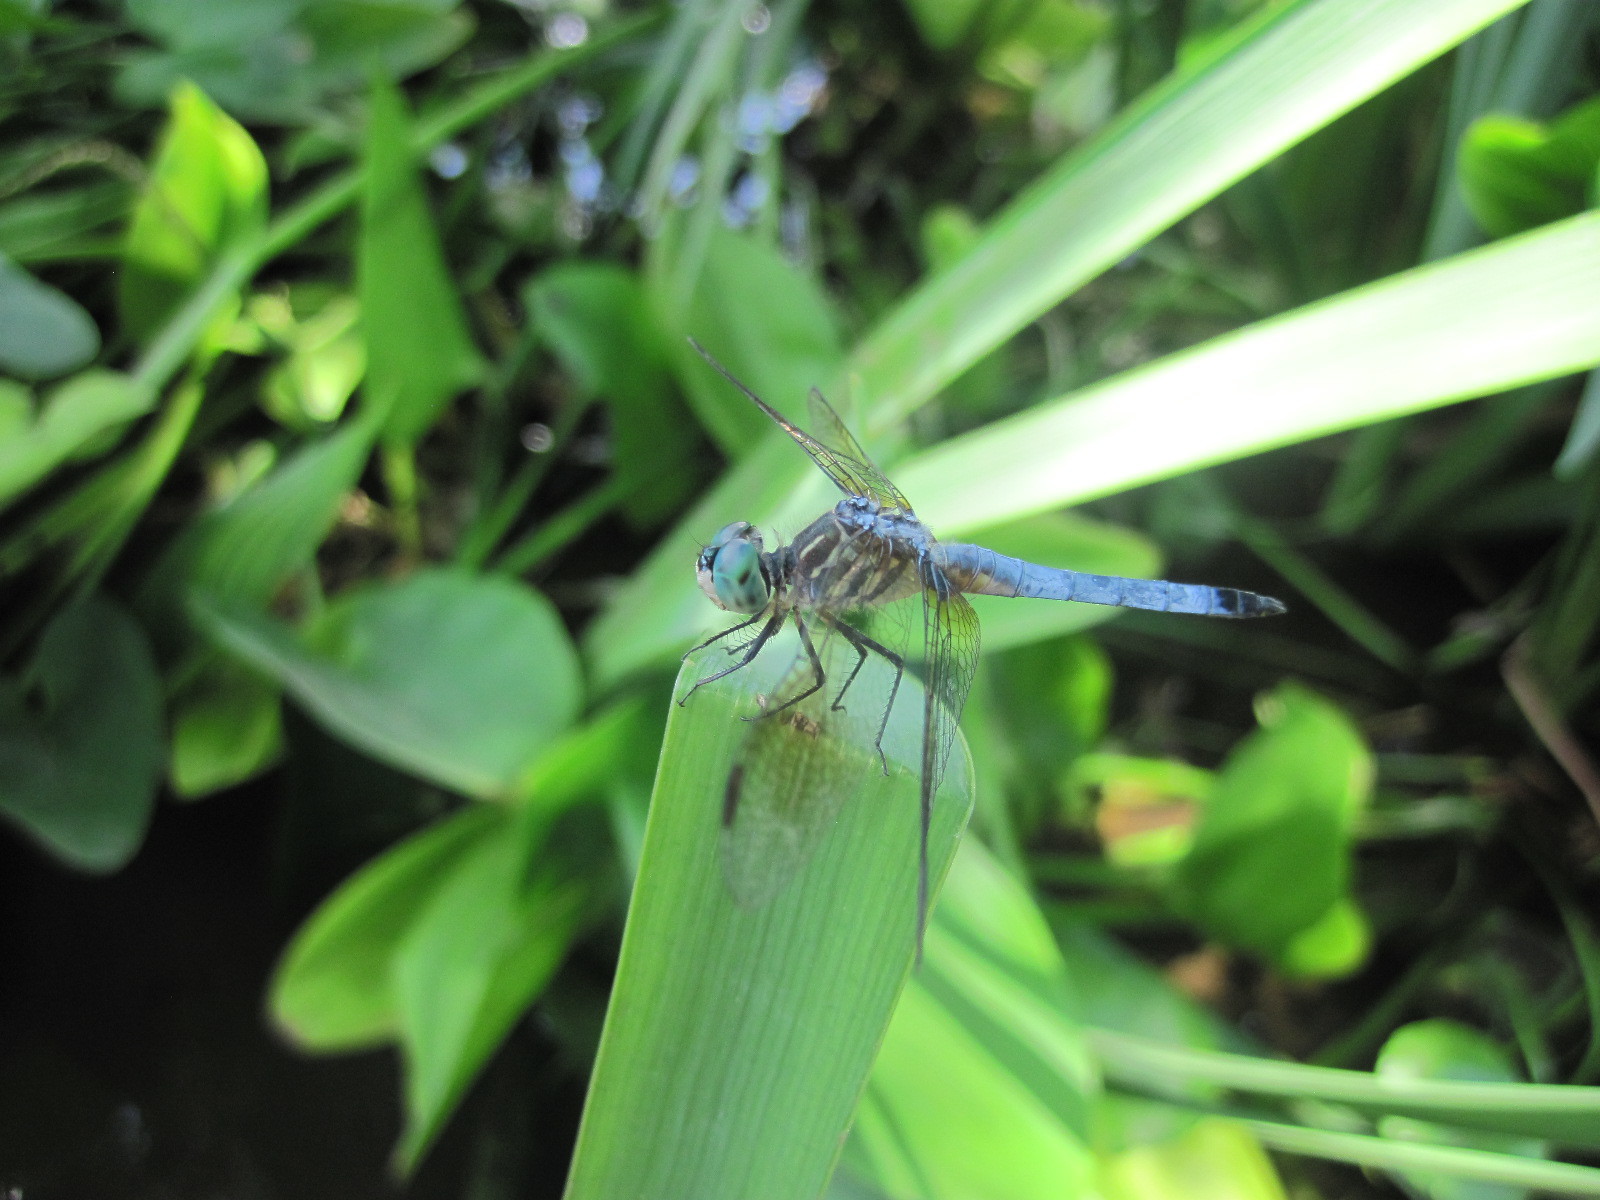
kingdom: Animalia
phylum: Arthropoda
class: Insecta
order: Odonata
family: Libellulidae
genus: Pachydiplax
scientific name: Pachydiplax longipennis
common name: Blue dasher
